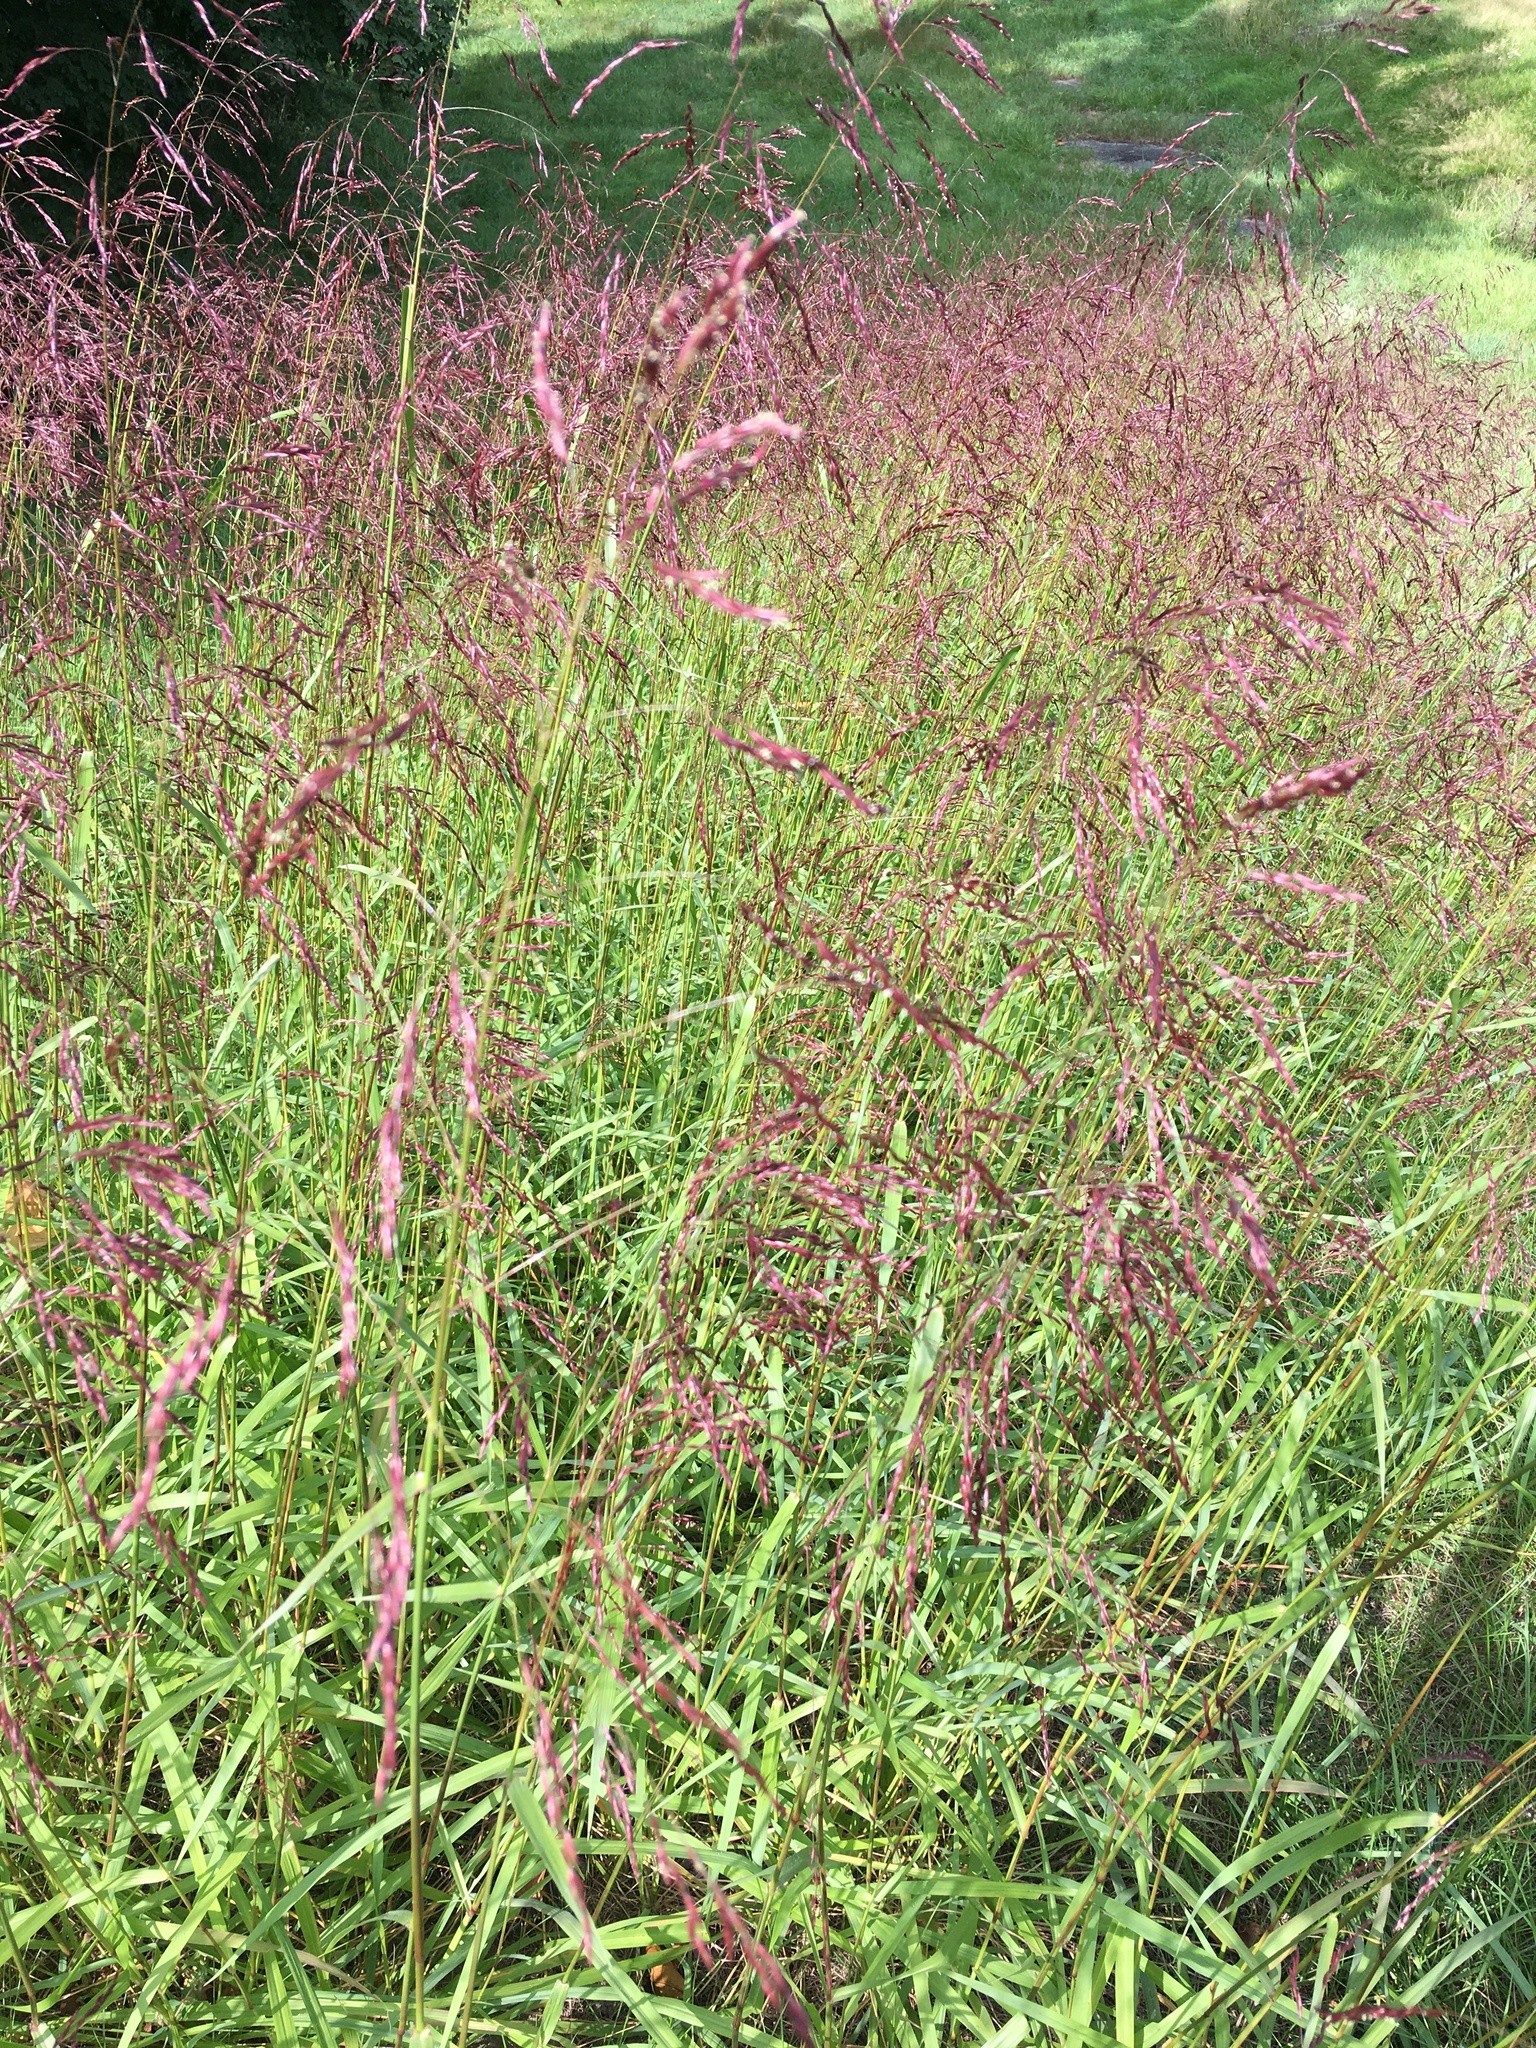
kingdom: Plantae
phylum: Tracheophyta
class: Liliopsida
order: Poales
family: Poaceae
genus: Tridens
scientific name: Tridens flavus
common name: Purpletop
